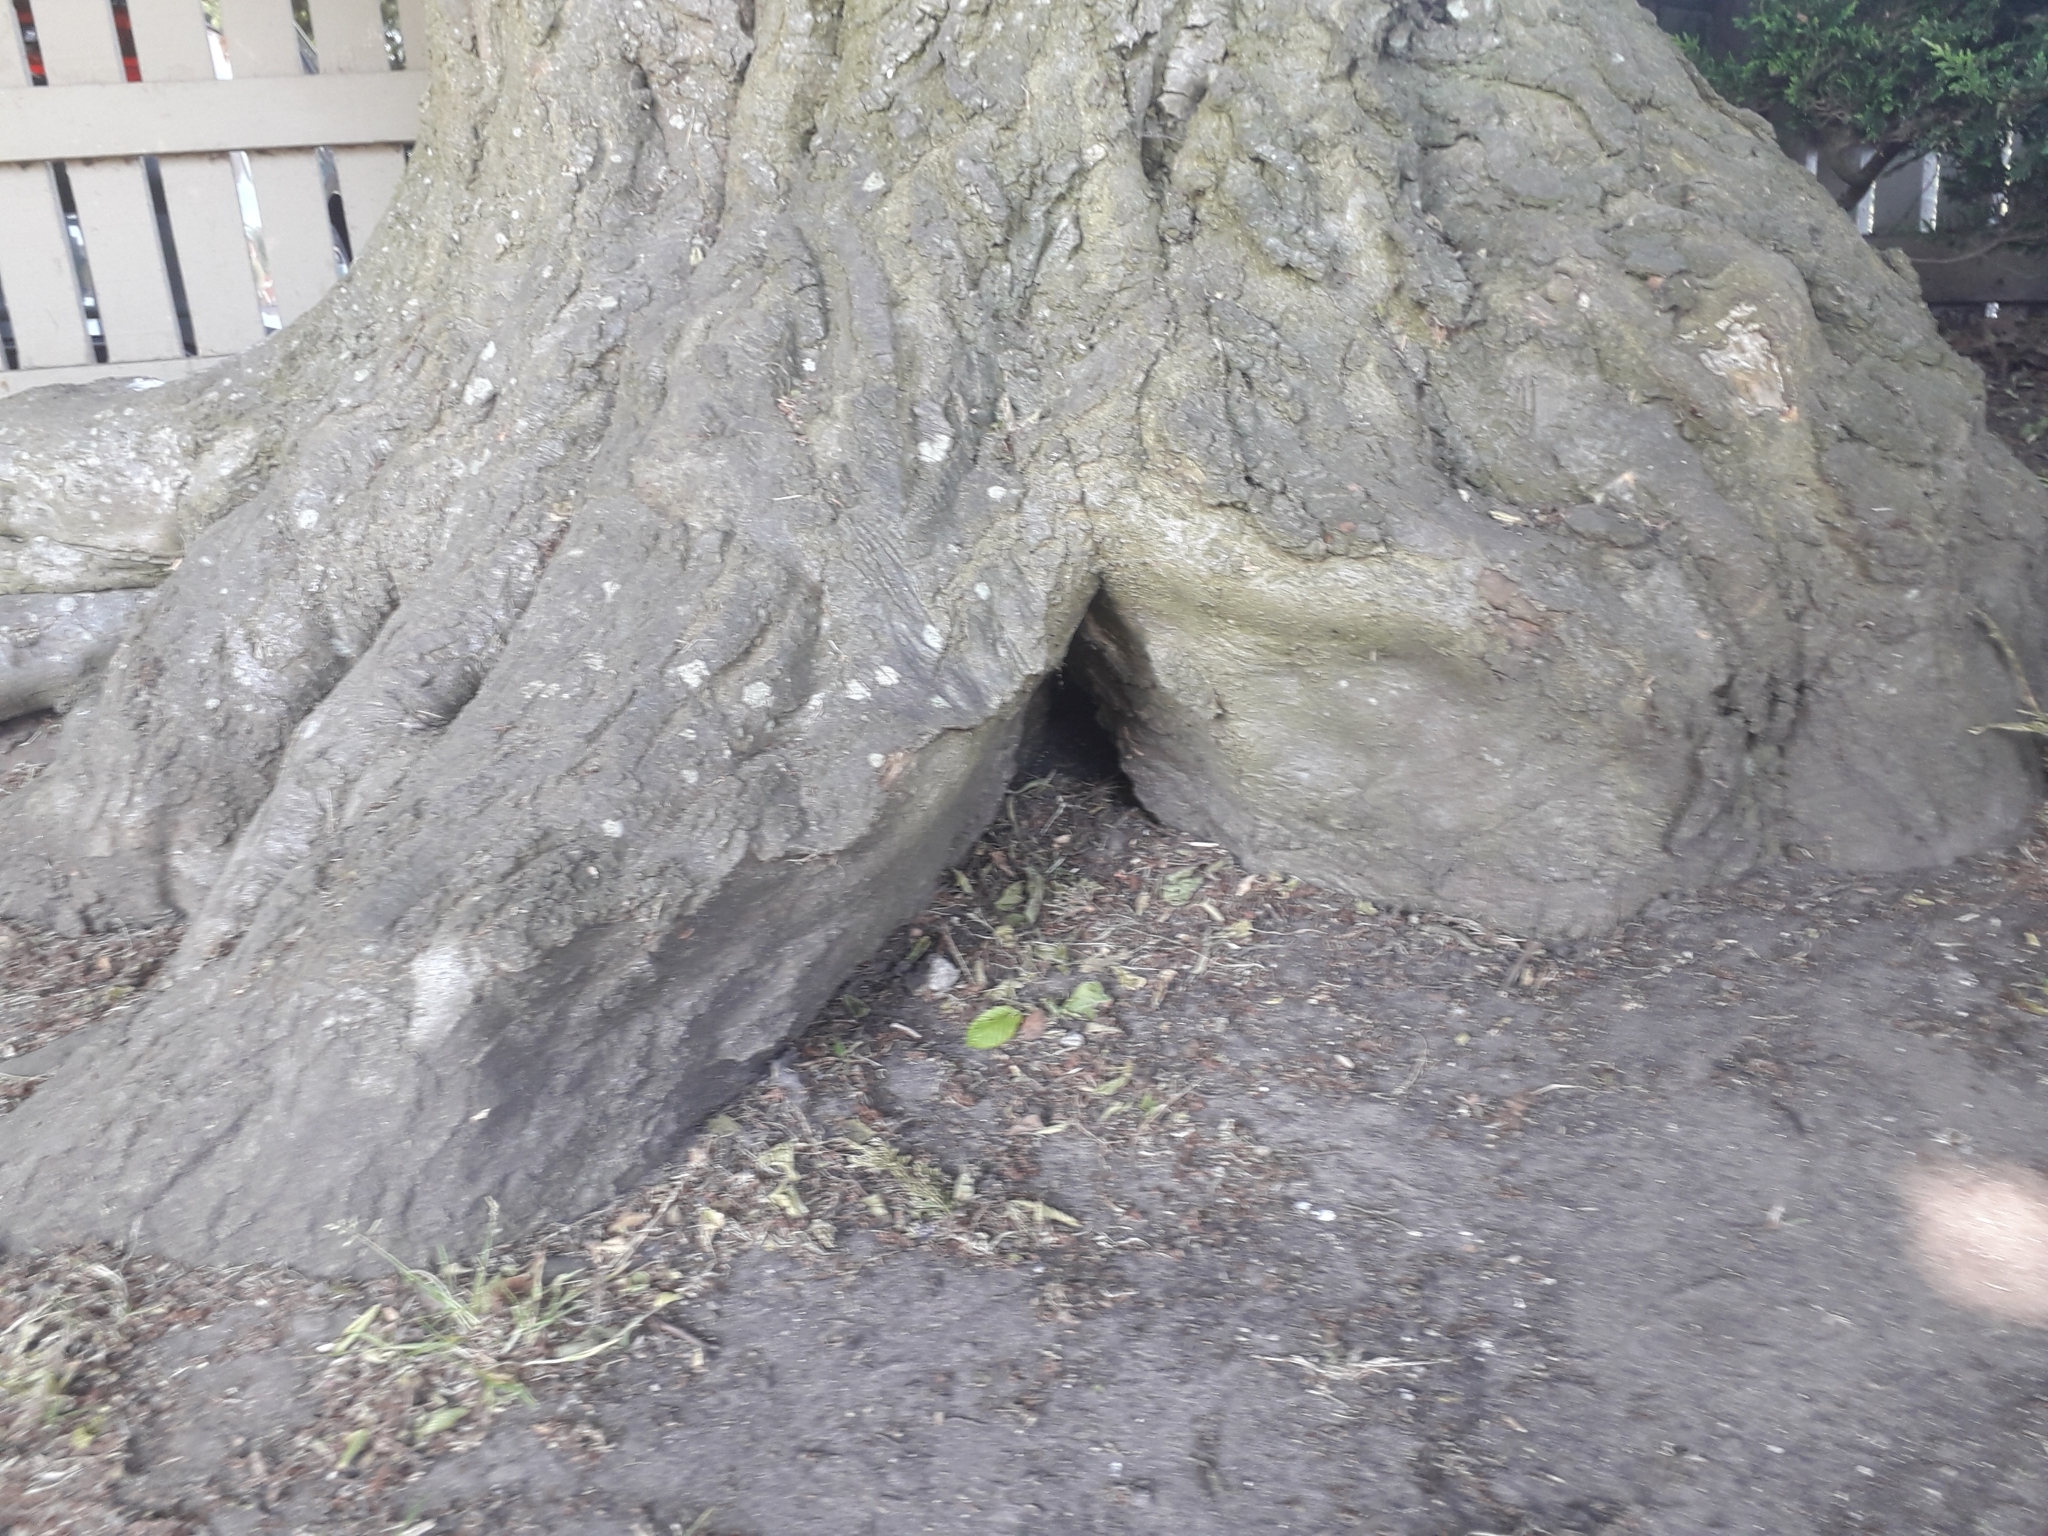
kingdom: Plantae
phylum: Tracheophyta
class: Magnoliopsida
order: Fagales
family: Betulaceae
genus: Carpinus
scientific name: Carpinus betulus
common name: Hornbeam
